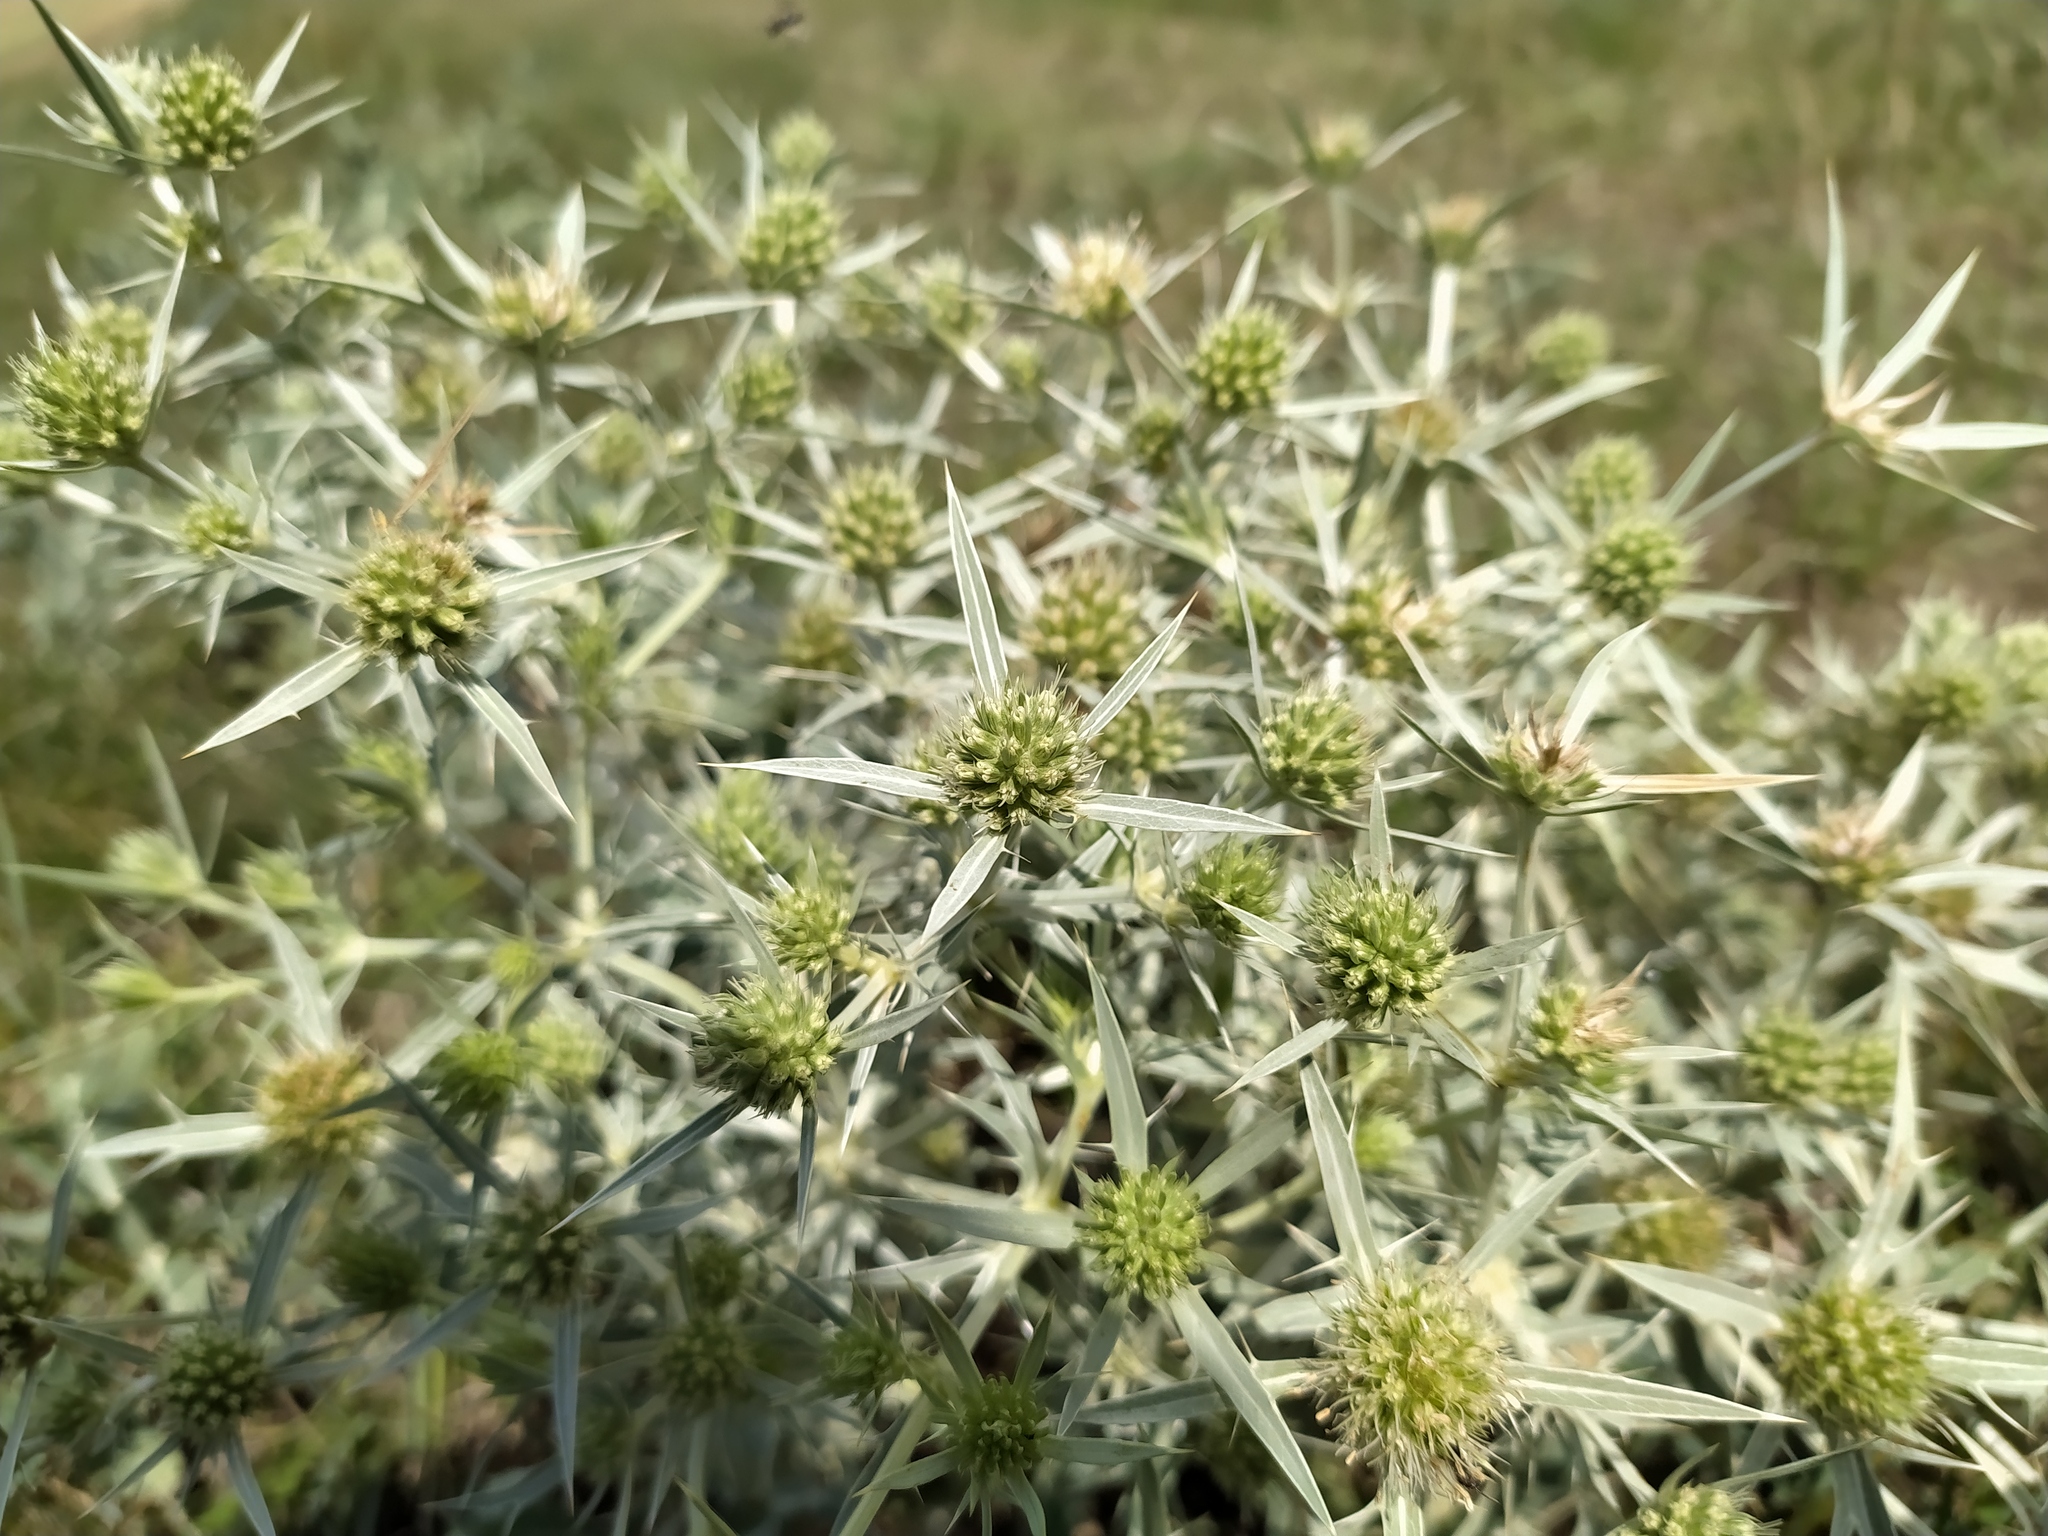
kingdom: Plantae
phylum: Tracheophyta
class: Magnoliopsida
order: Apiales
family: Apiaceae
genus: Eryngium
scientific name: Eryngium campestre
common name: Field eryngo
